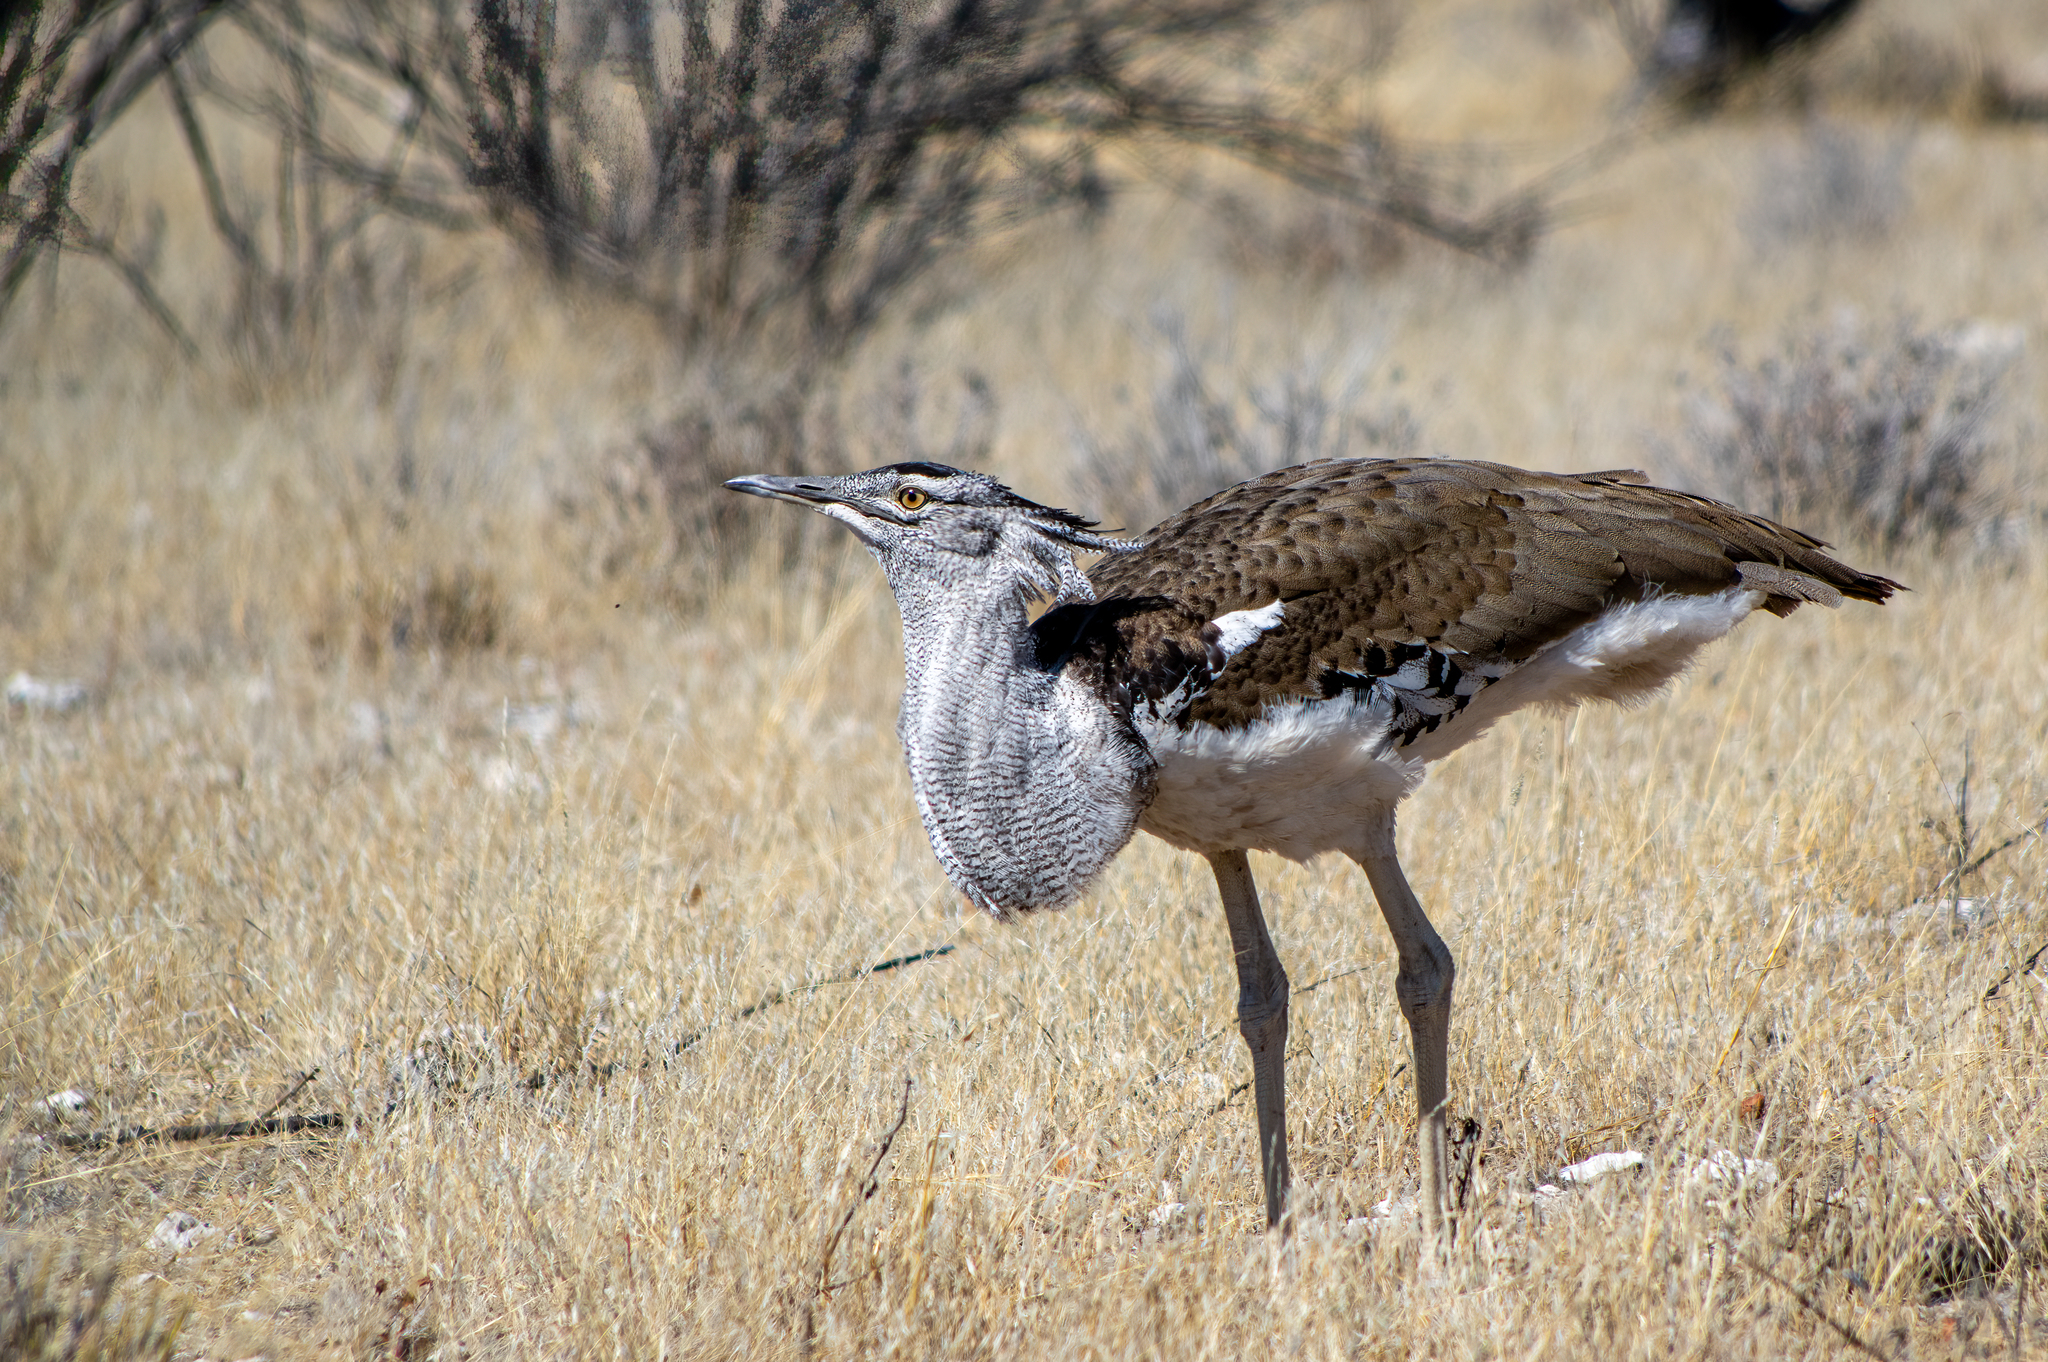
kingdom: Animalia
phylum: Chordata
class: Aves
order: Otidiformes
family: Otididae
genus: Ardeotis
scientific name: Ardeotis kori
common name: Kori bustard
